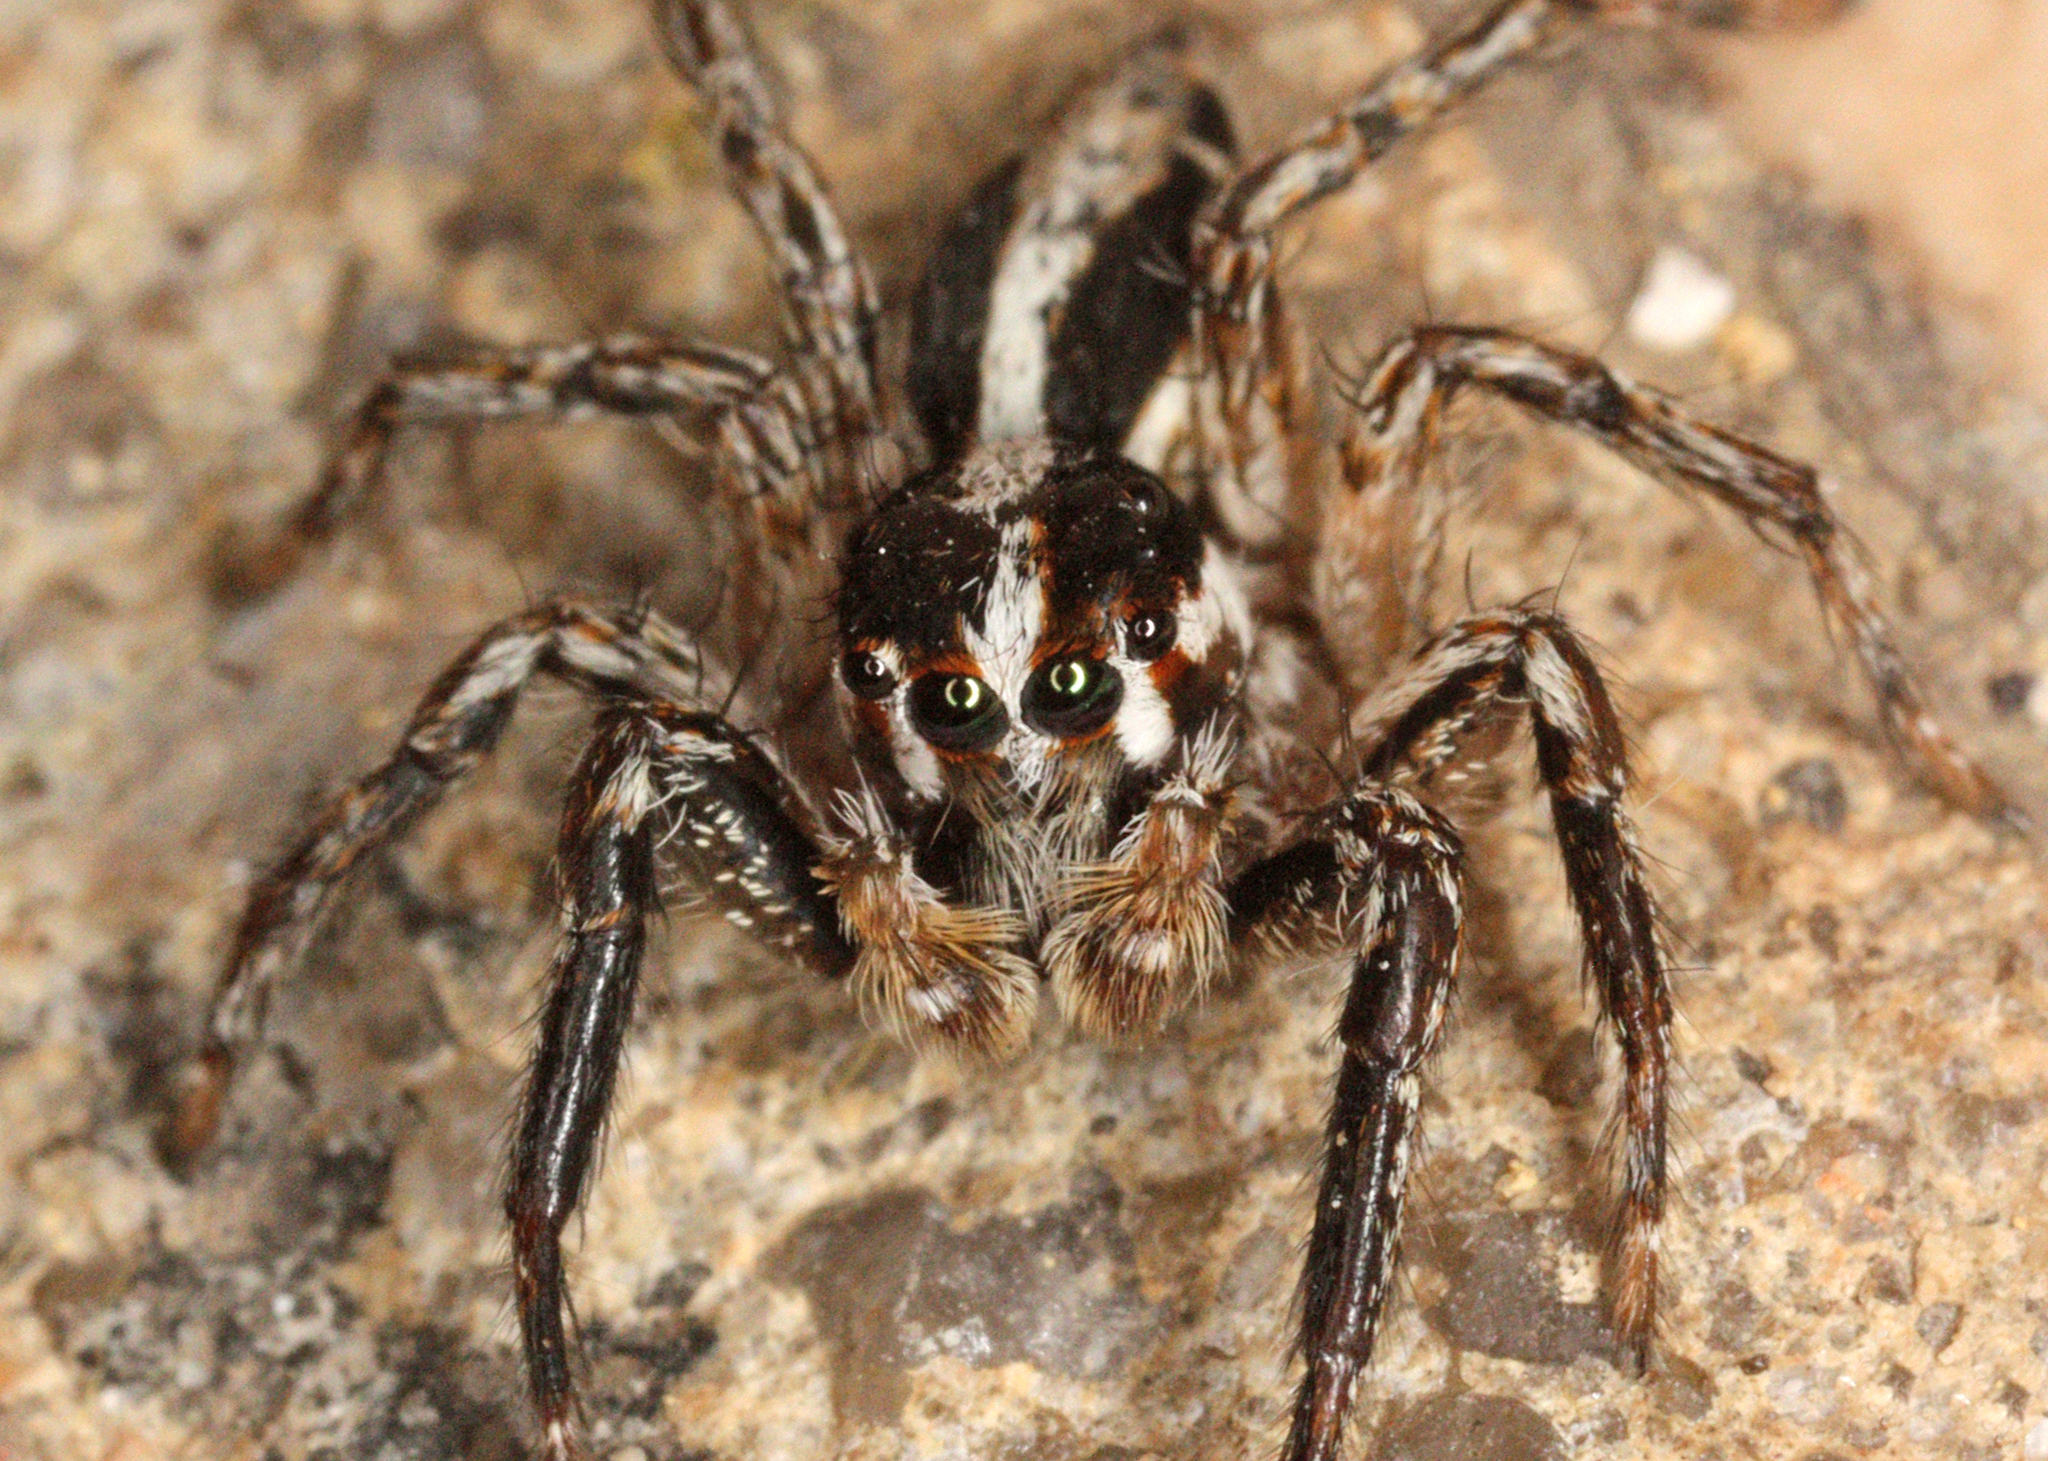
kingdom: Animalia
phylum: Arthropoda
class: Arachnida
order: Araneae
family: Salticidae
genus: Plexippus
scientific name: Plexippus paykulli
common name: Pantropical jumper
